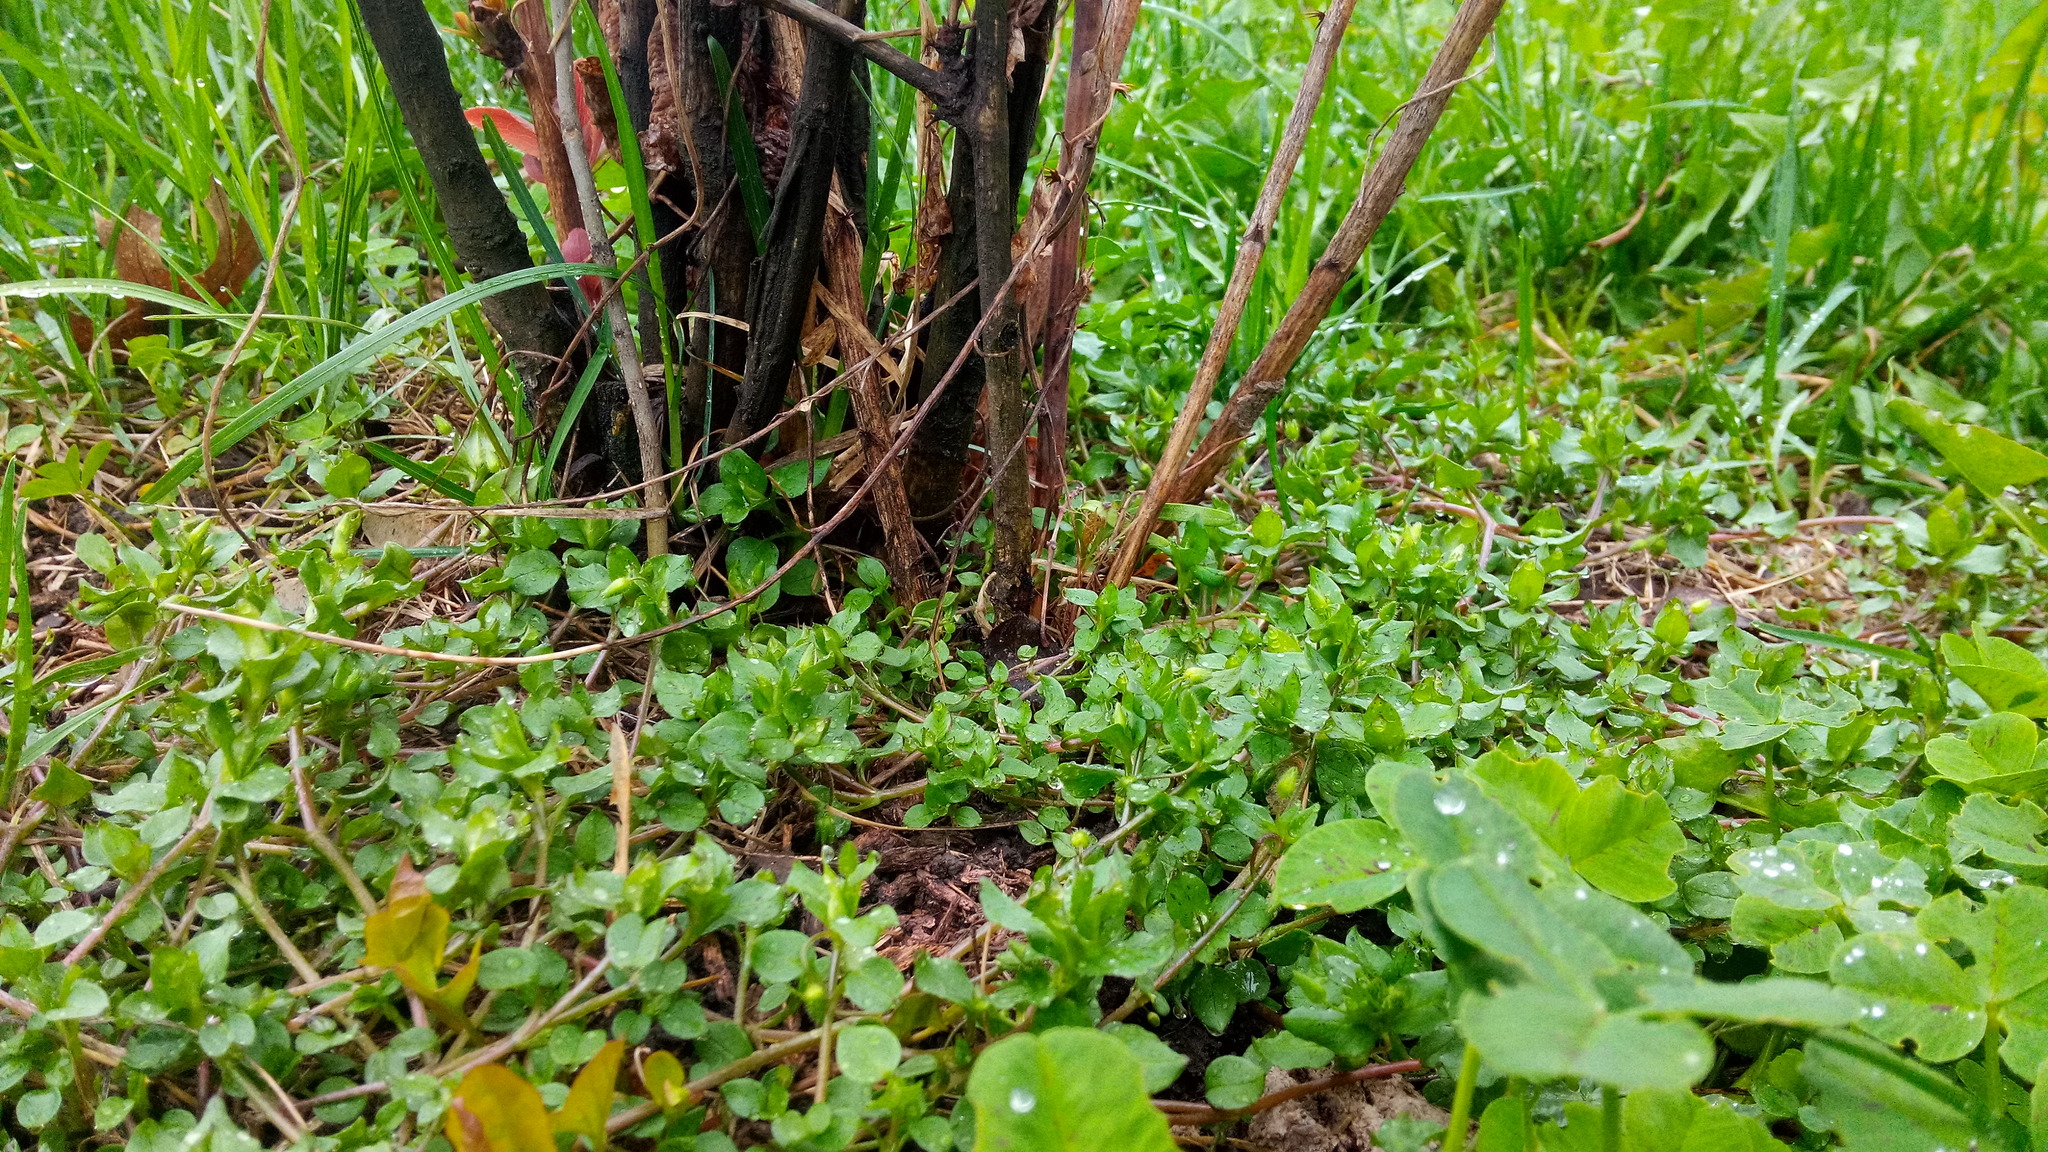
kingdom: Plantae
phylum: Tracheophyta
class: Magnoliopsida
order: Caryophyllales
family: Caryophyllaceae
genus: Stellaria
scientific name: Stellaria media
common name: Common chickweed
